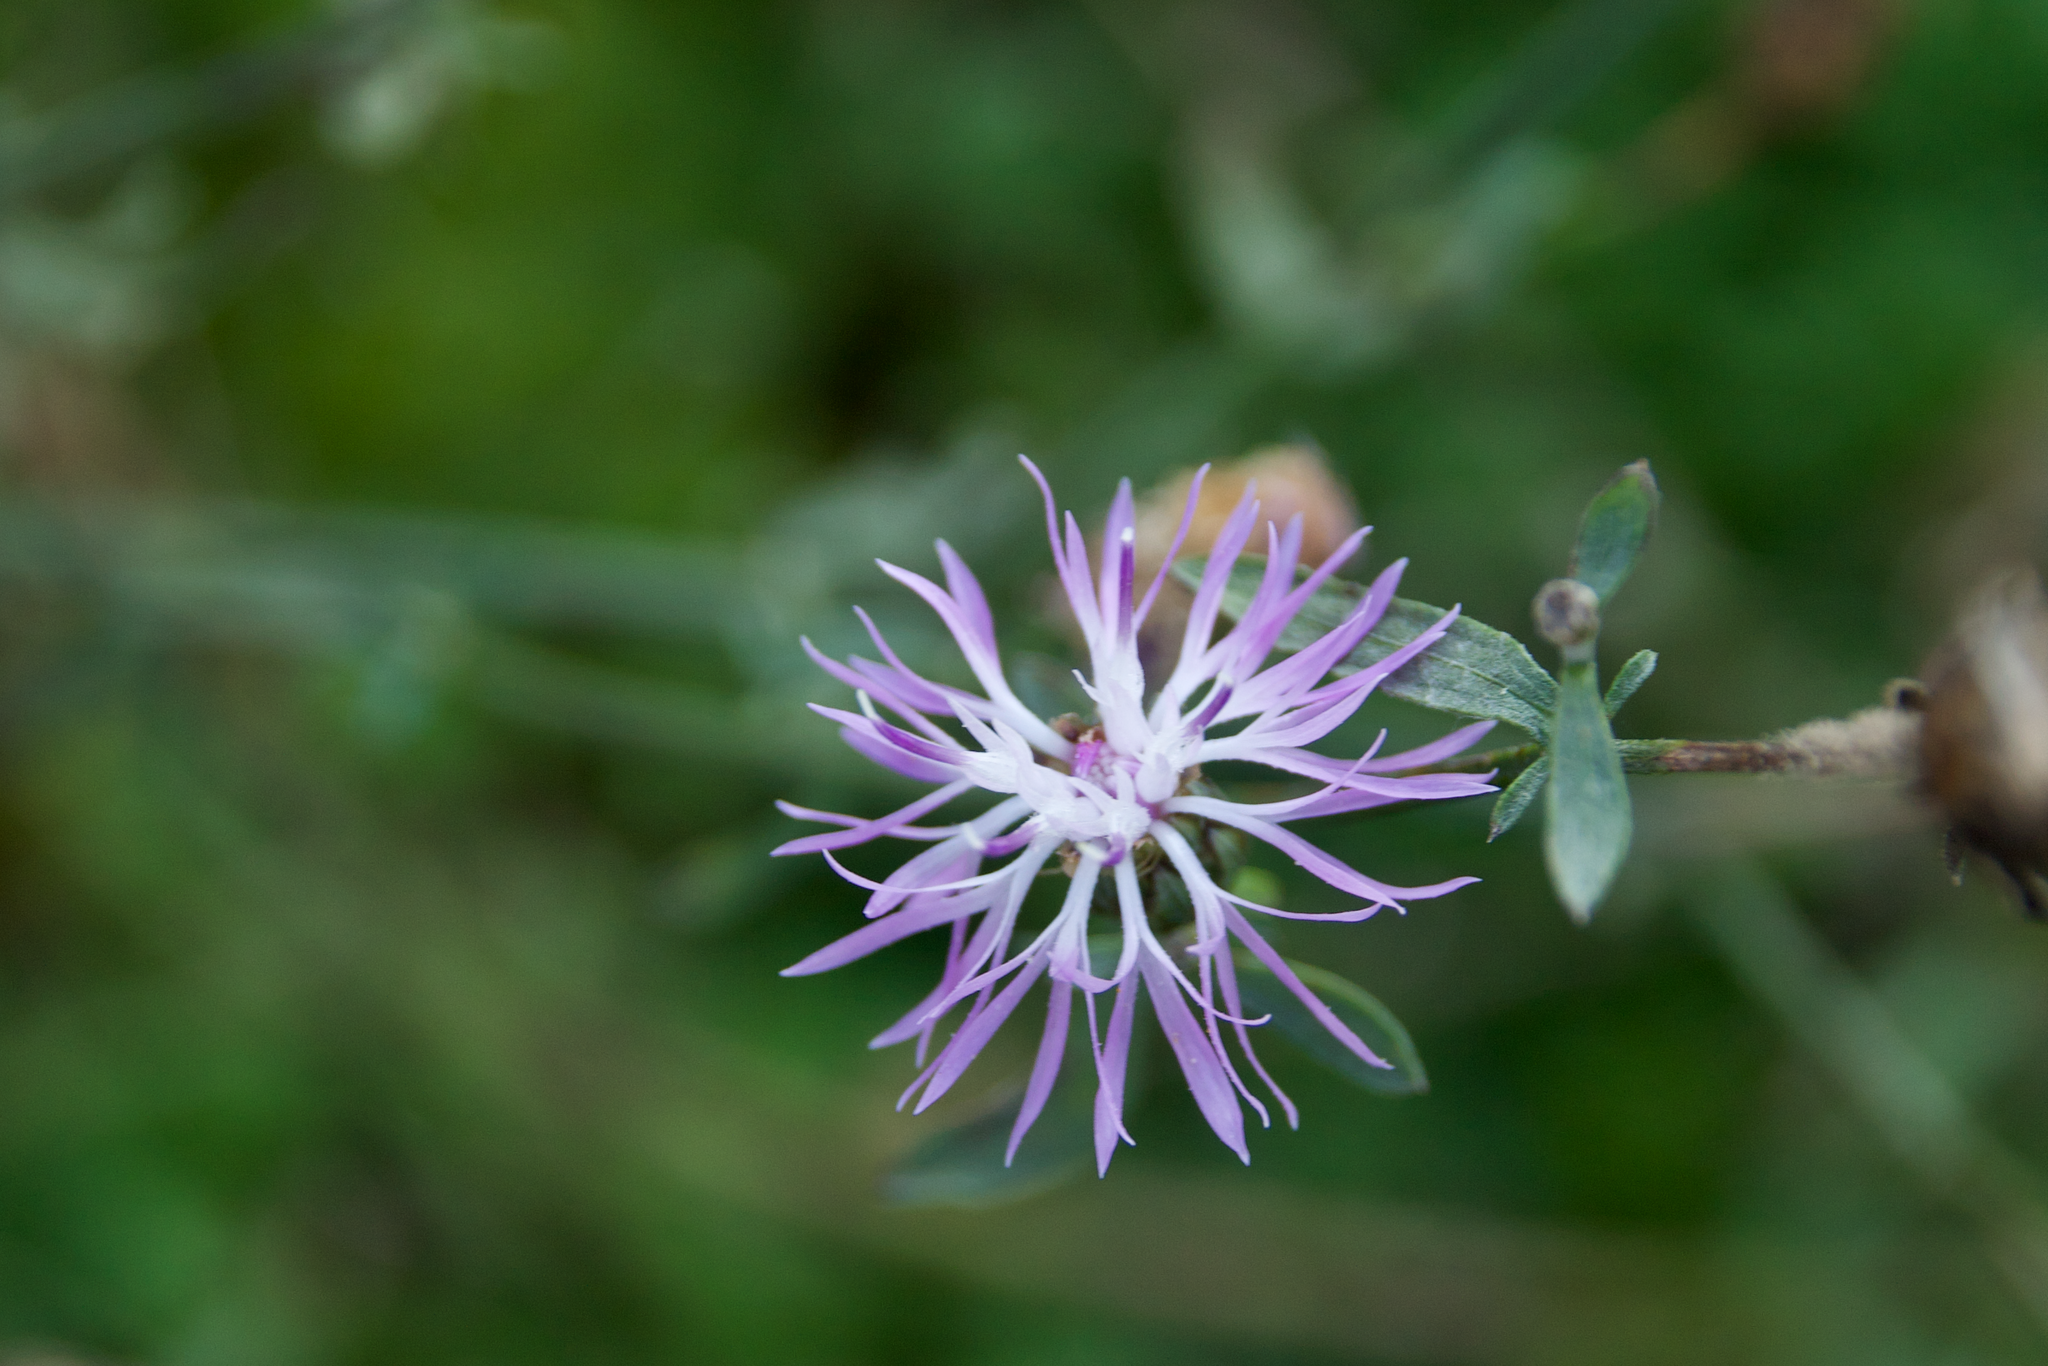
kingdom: Plantae
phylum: Tracheophyta
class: Magnoliopsida
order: Asterales
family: Asteraceae
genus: Centaurea
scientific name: Centaurea stoebe
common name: Spotted knapweed
